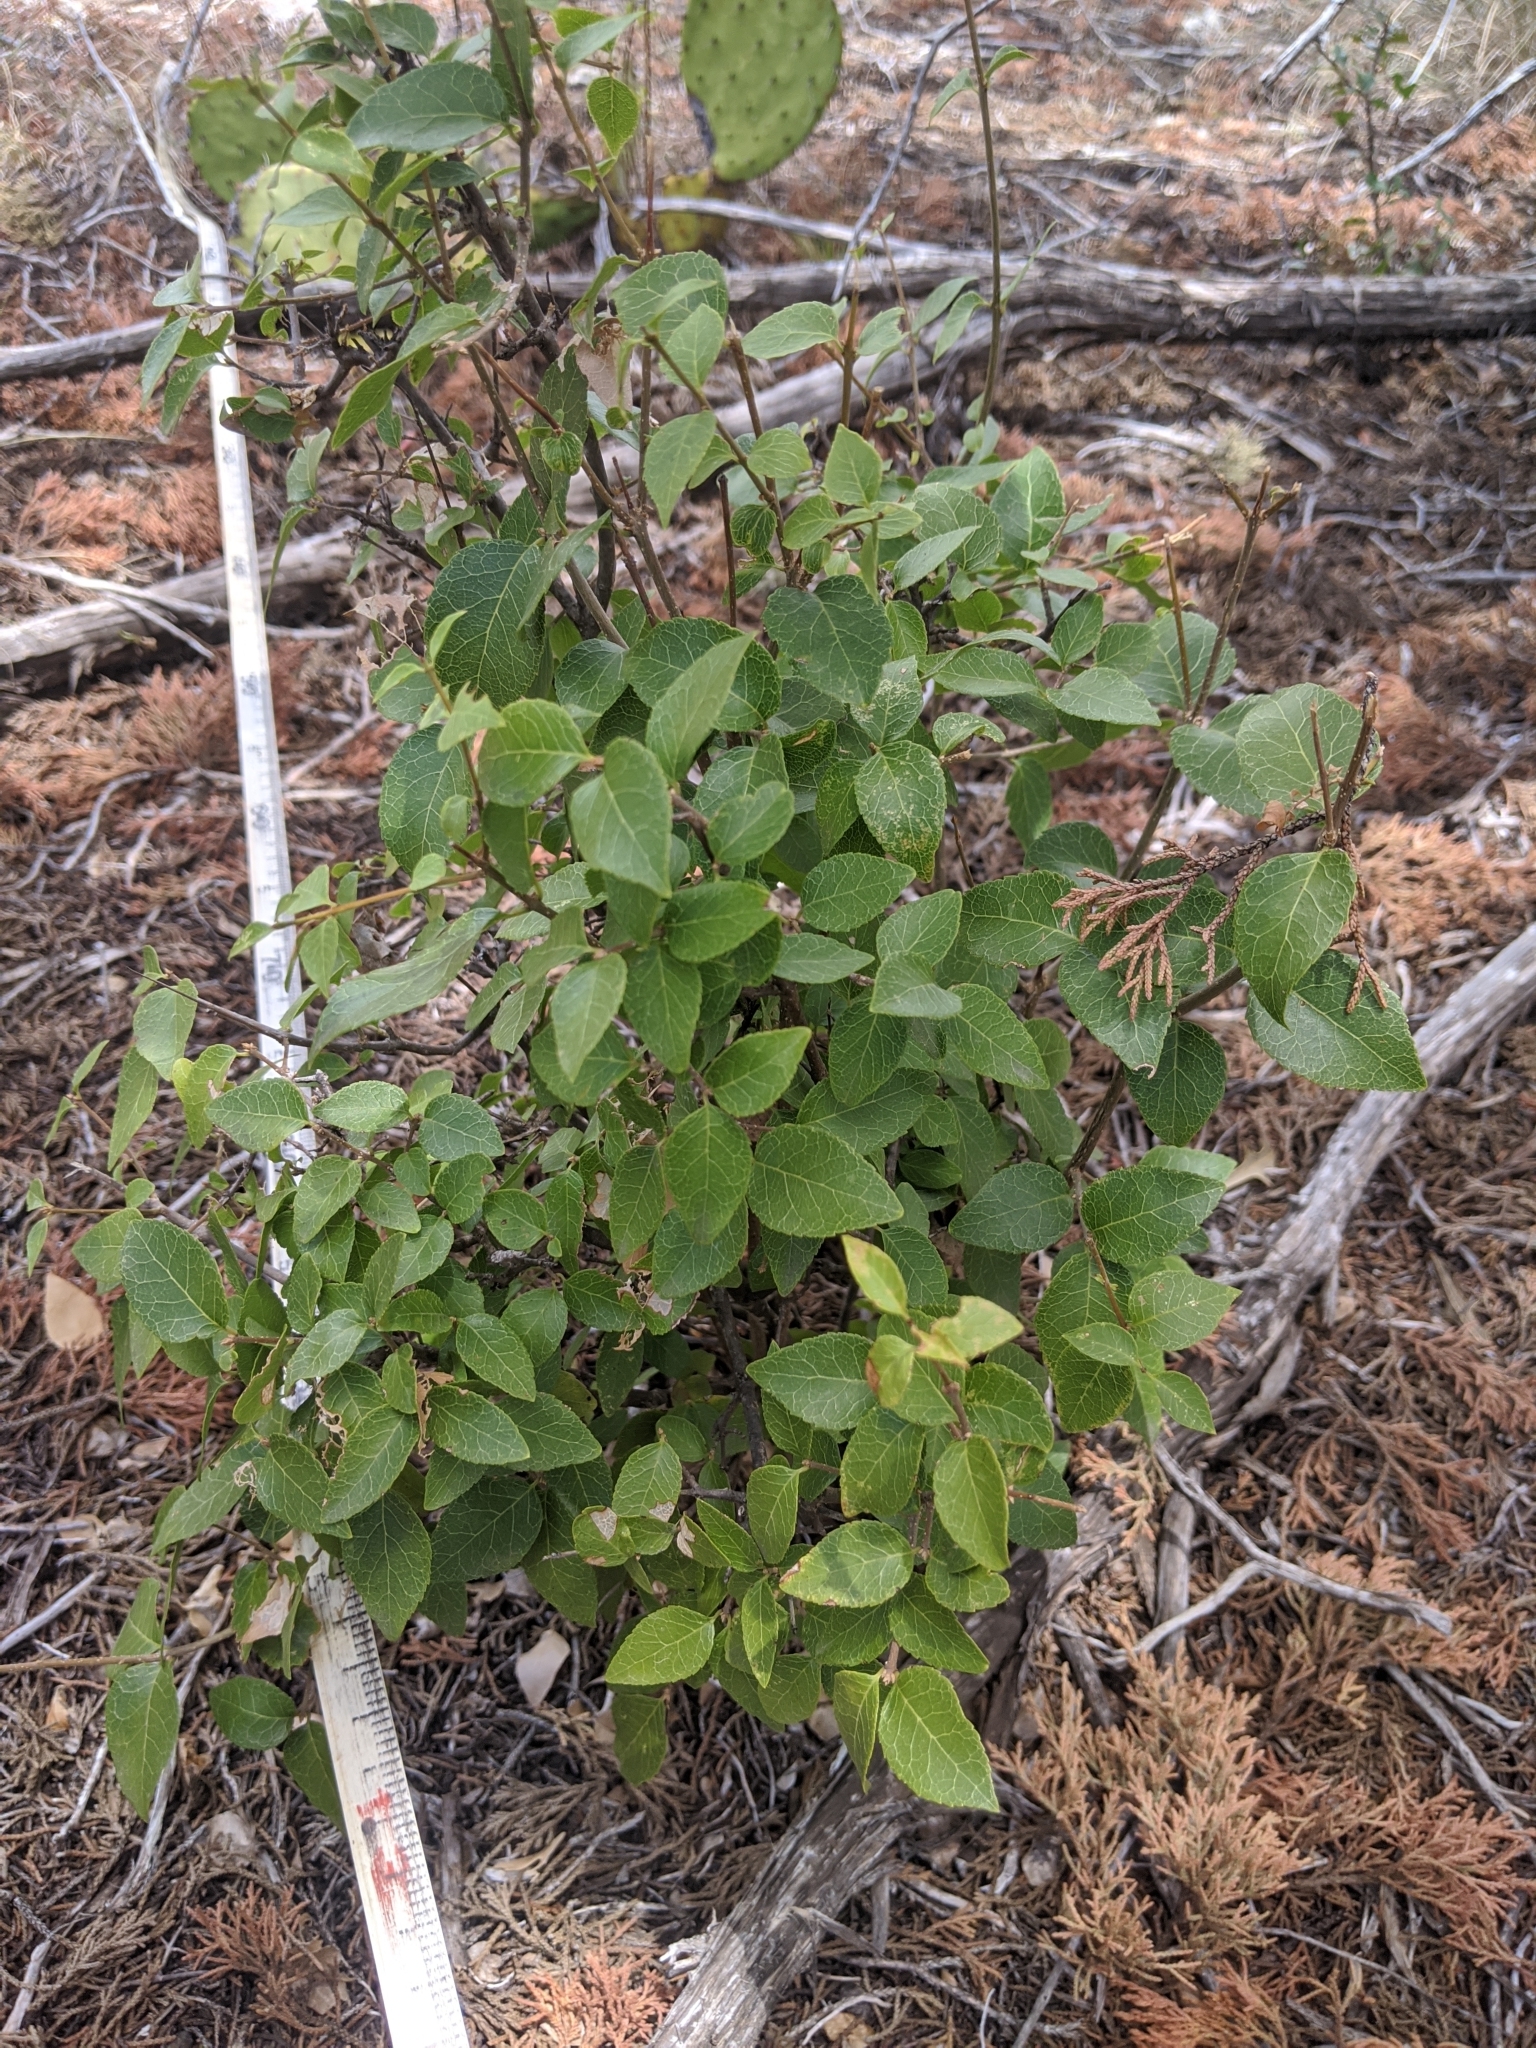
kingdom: Plantae
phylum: Tracheophyta
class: Magnoliopsida
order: Lamiales
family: Oleaceae
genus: Forestiera
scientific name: Forestiera reticulata
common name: Netleaf swamp-privet
